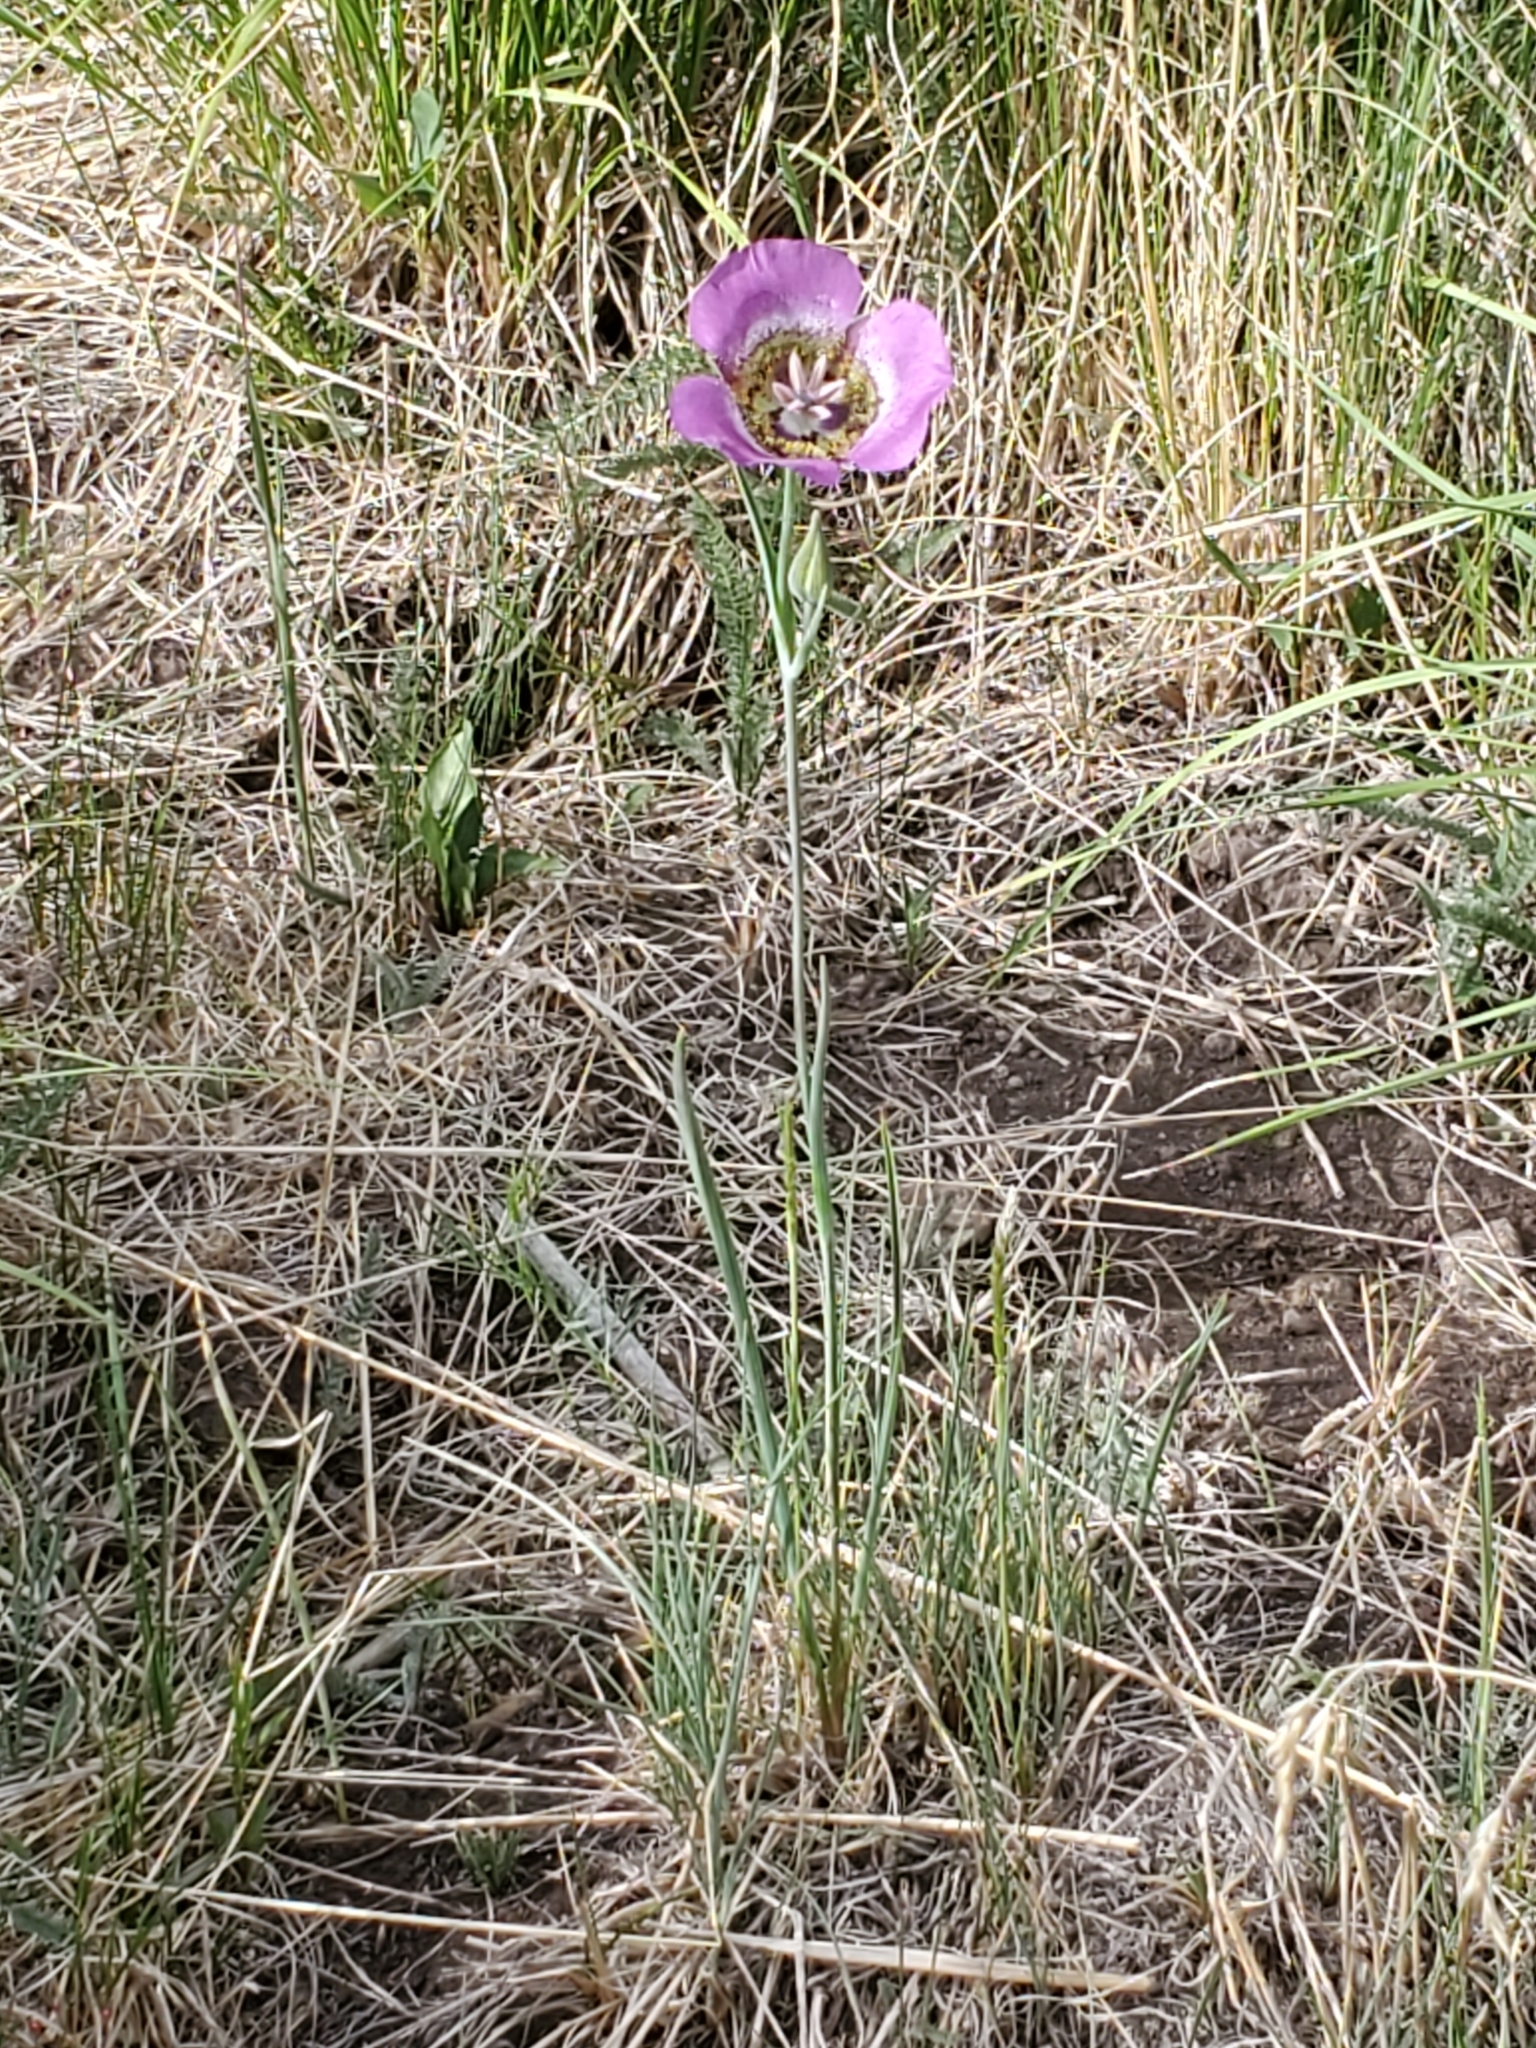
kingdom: Plantae
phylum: Tracheophyta
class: Liliopsida
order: Liliales
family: Liliaceae
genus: Calochortus
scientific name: Calochortus gunnisonii
